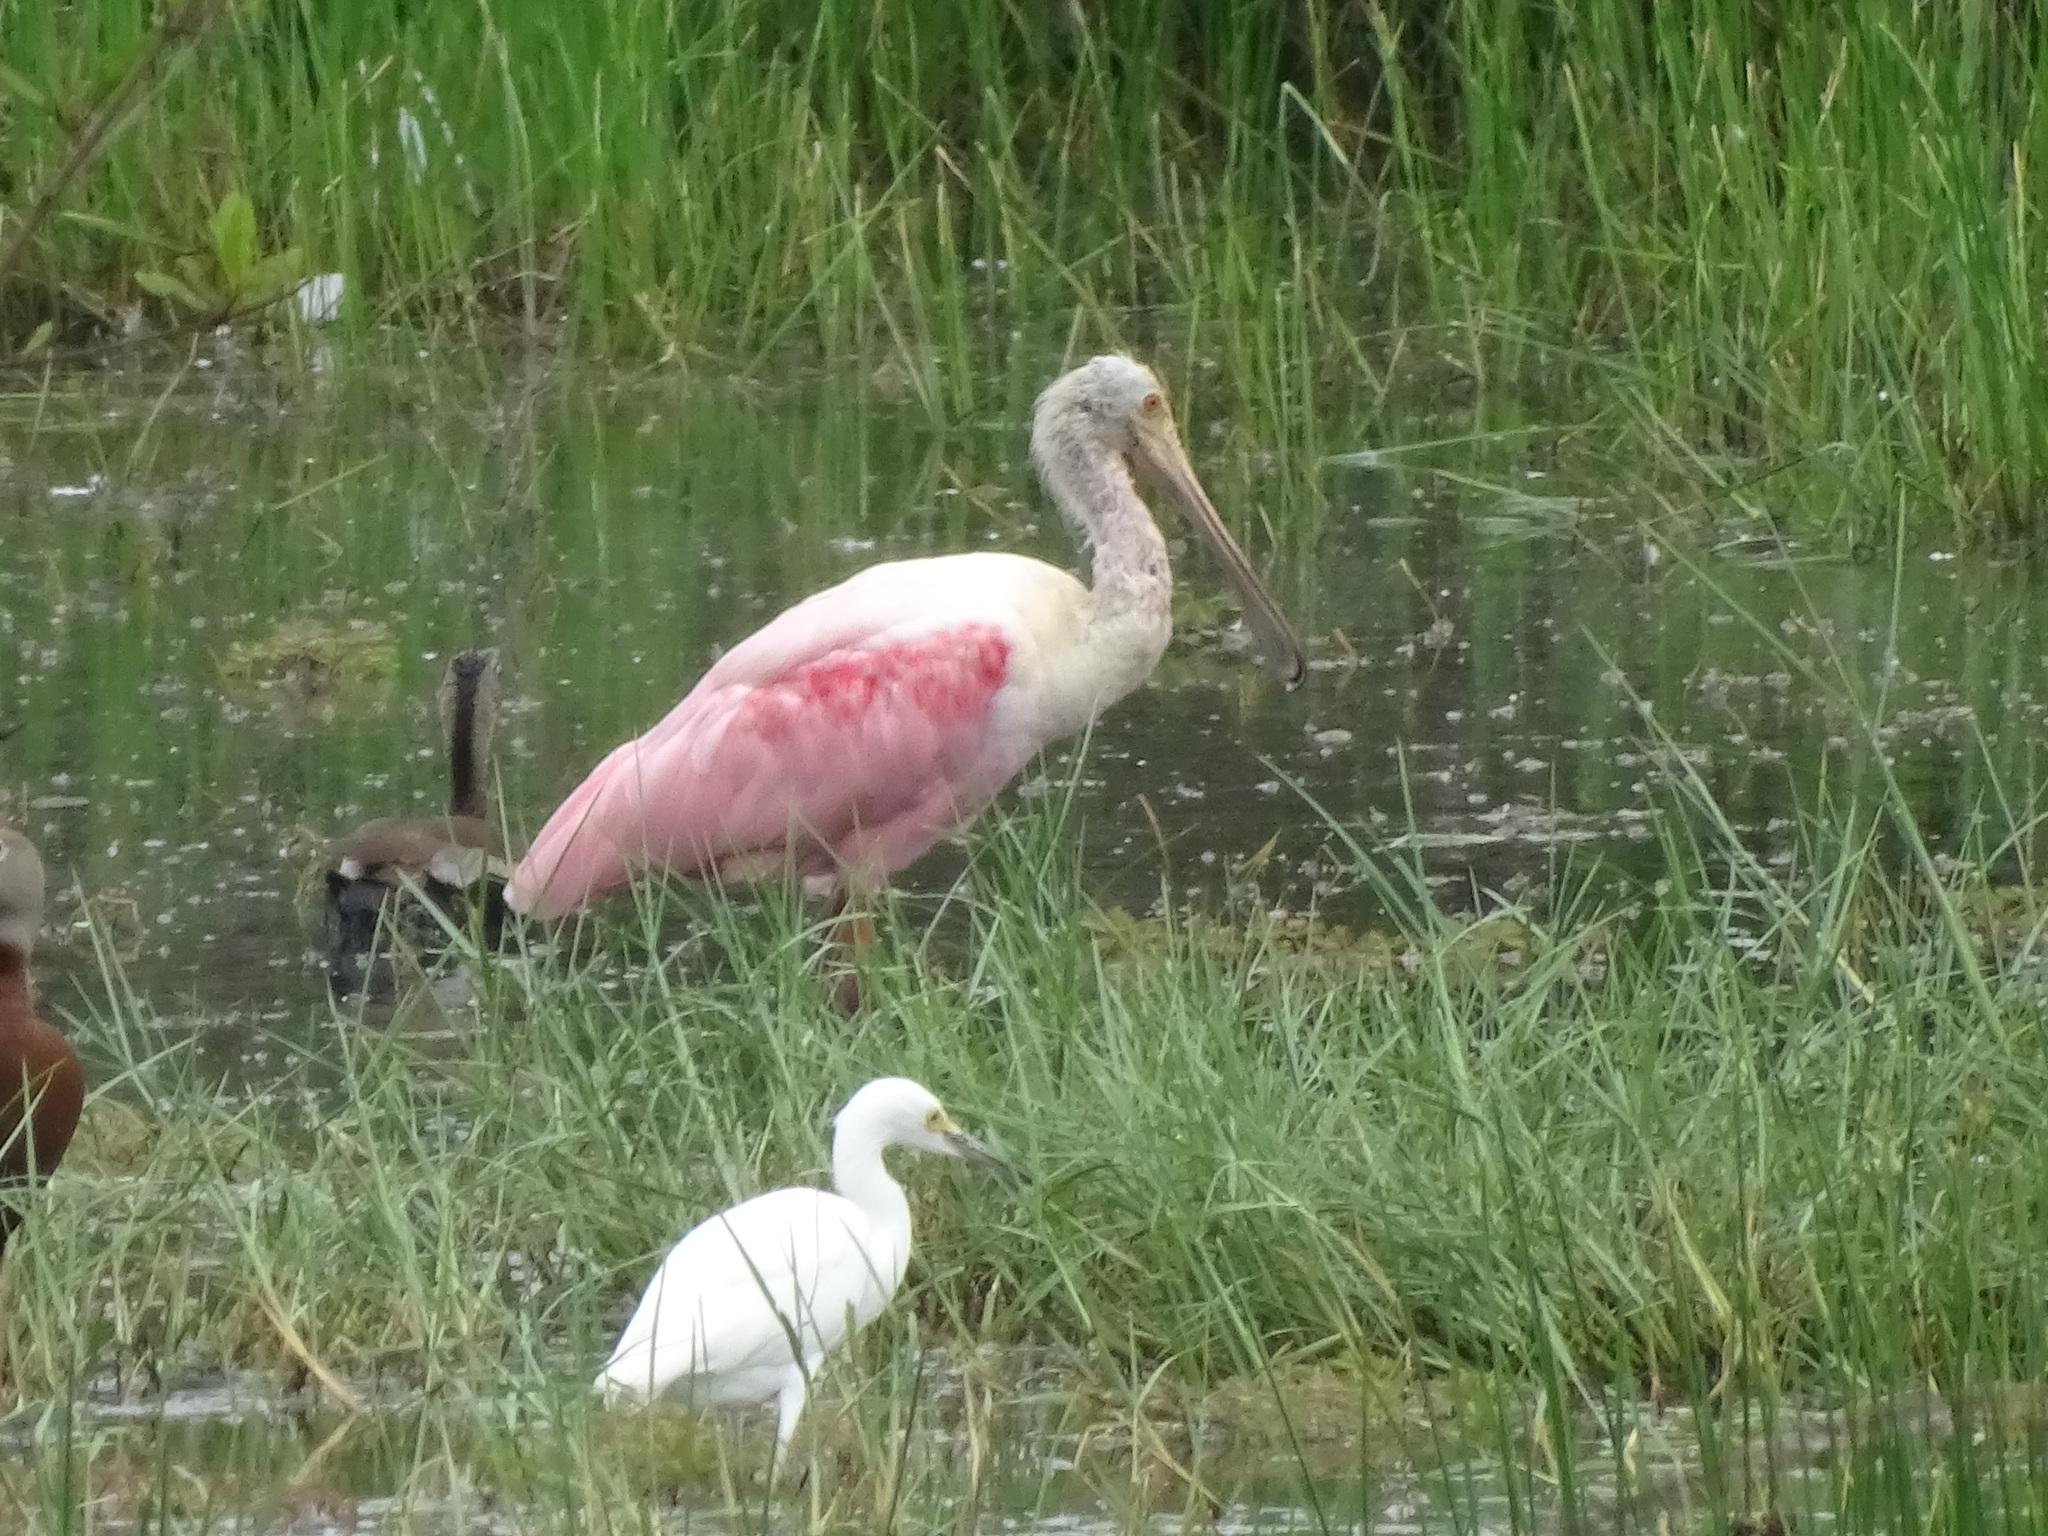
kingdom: Animalia
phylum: Chordata
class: Aves
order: Pelecaniformes
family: Threskiornithidae
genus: Platalea
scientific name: Platalea ajaja
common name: Roseate spoonbill
